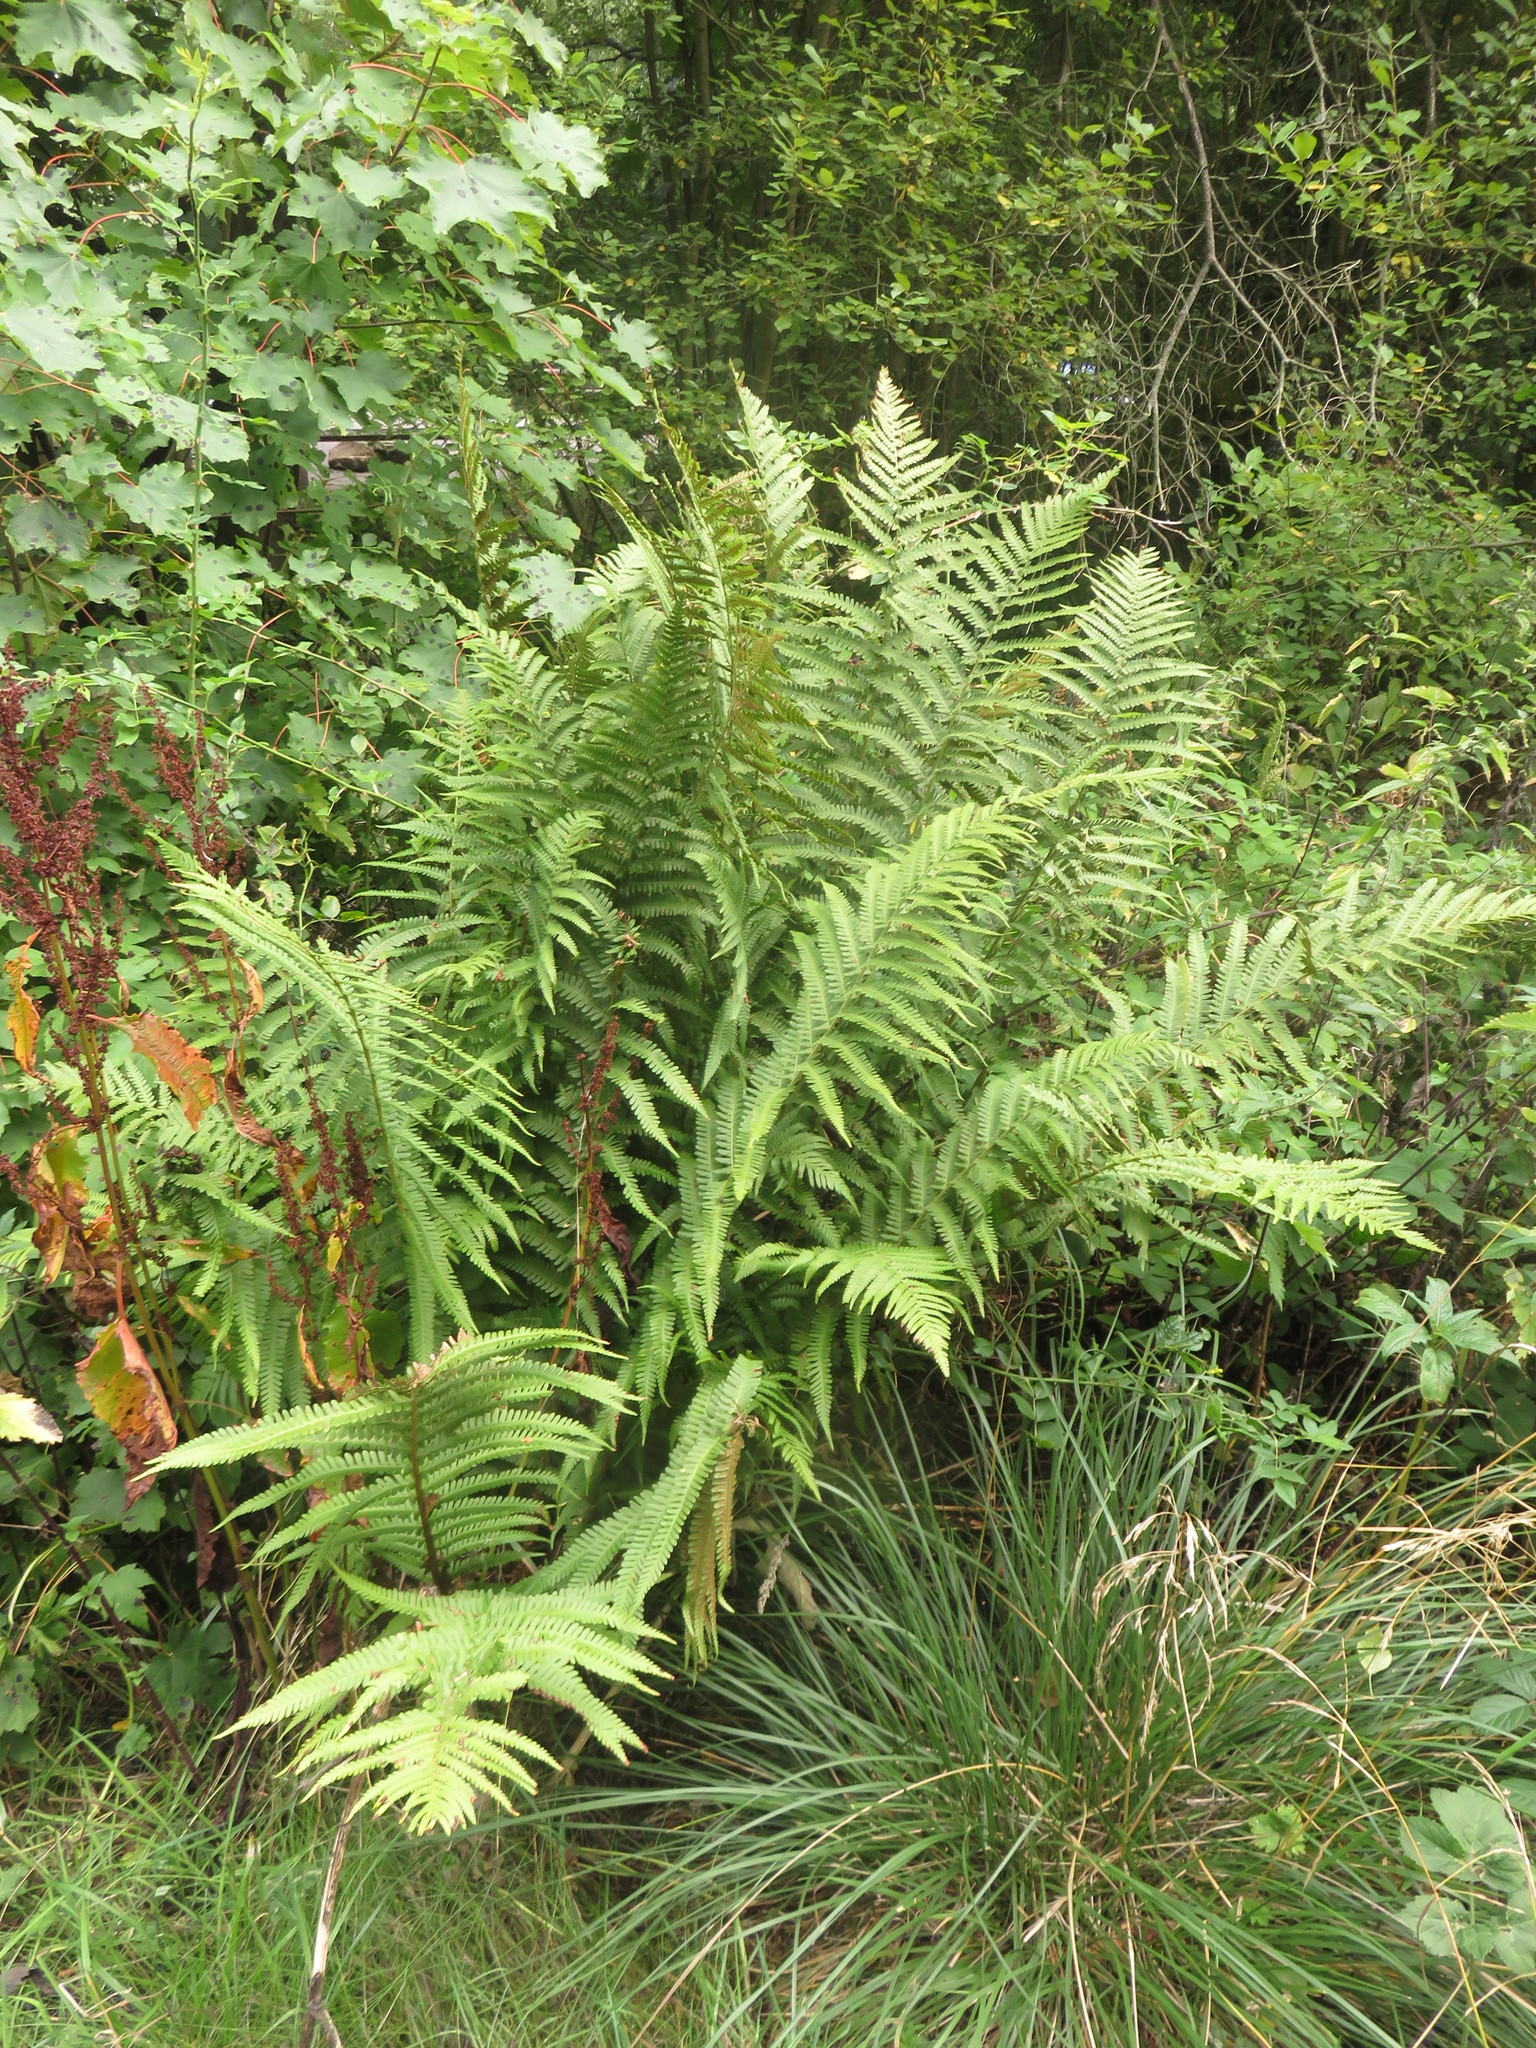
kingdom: Plantae
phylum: Tracheophyta
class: Polypodiopsida
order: Polypodiales
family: Dryopteridaceae
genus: Dryopteris
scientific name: Dryopteris filix-mas
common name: Male fern
